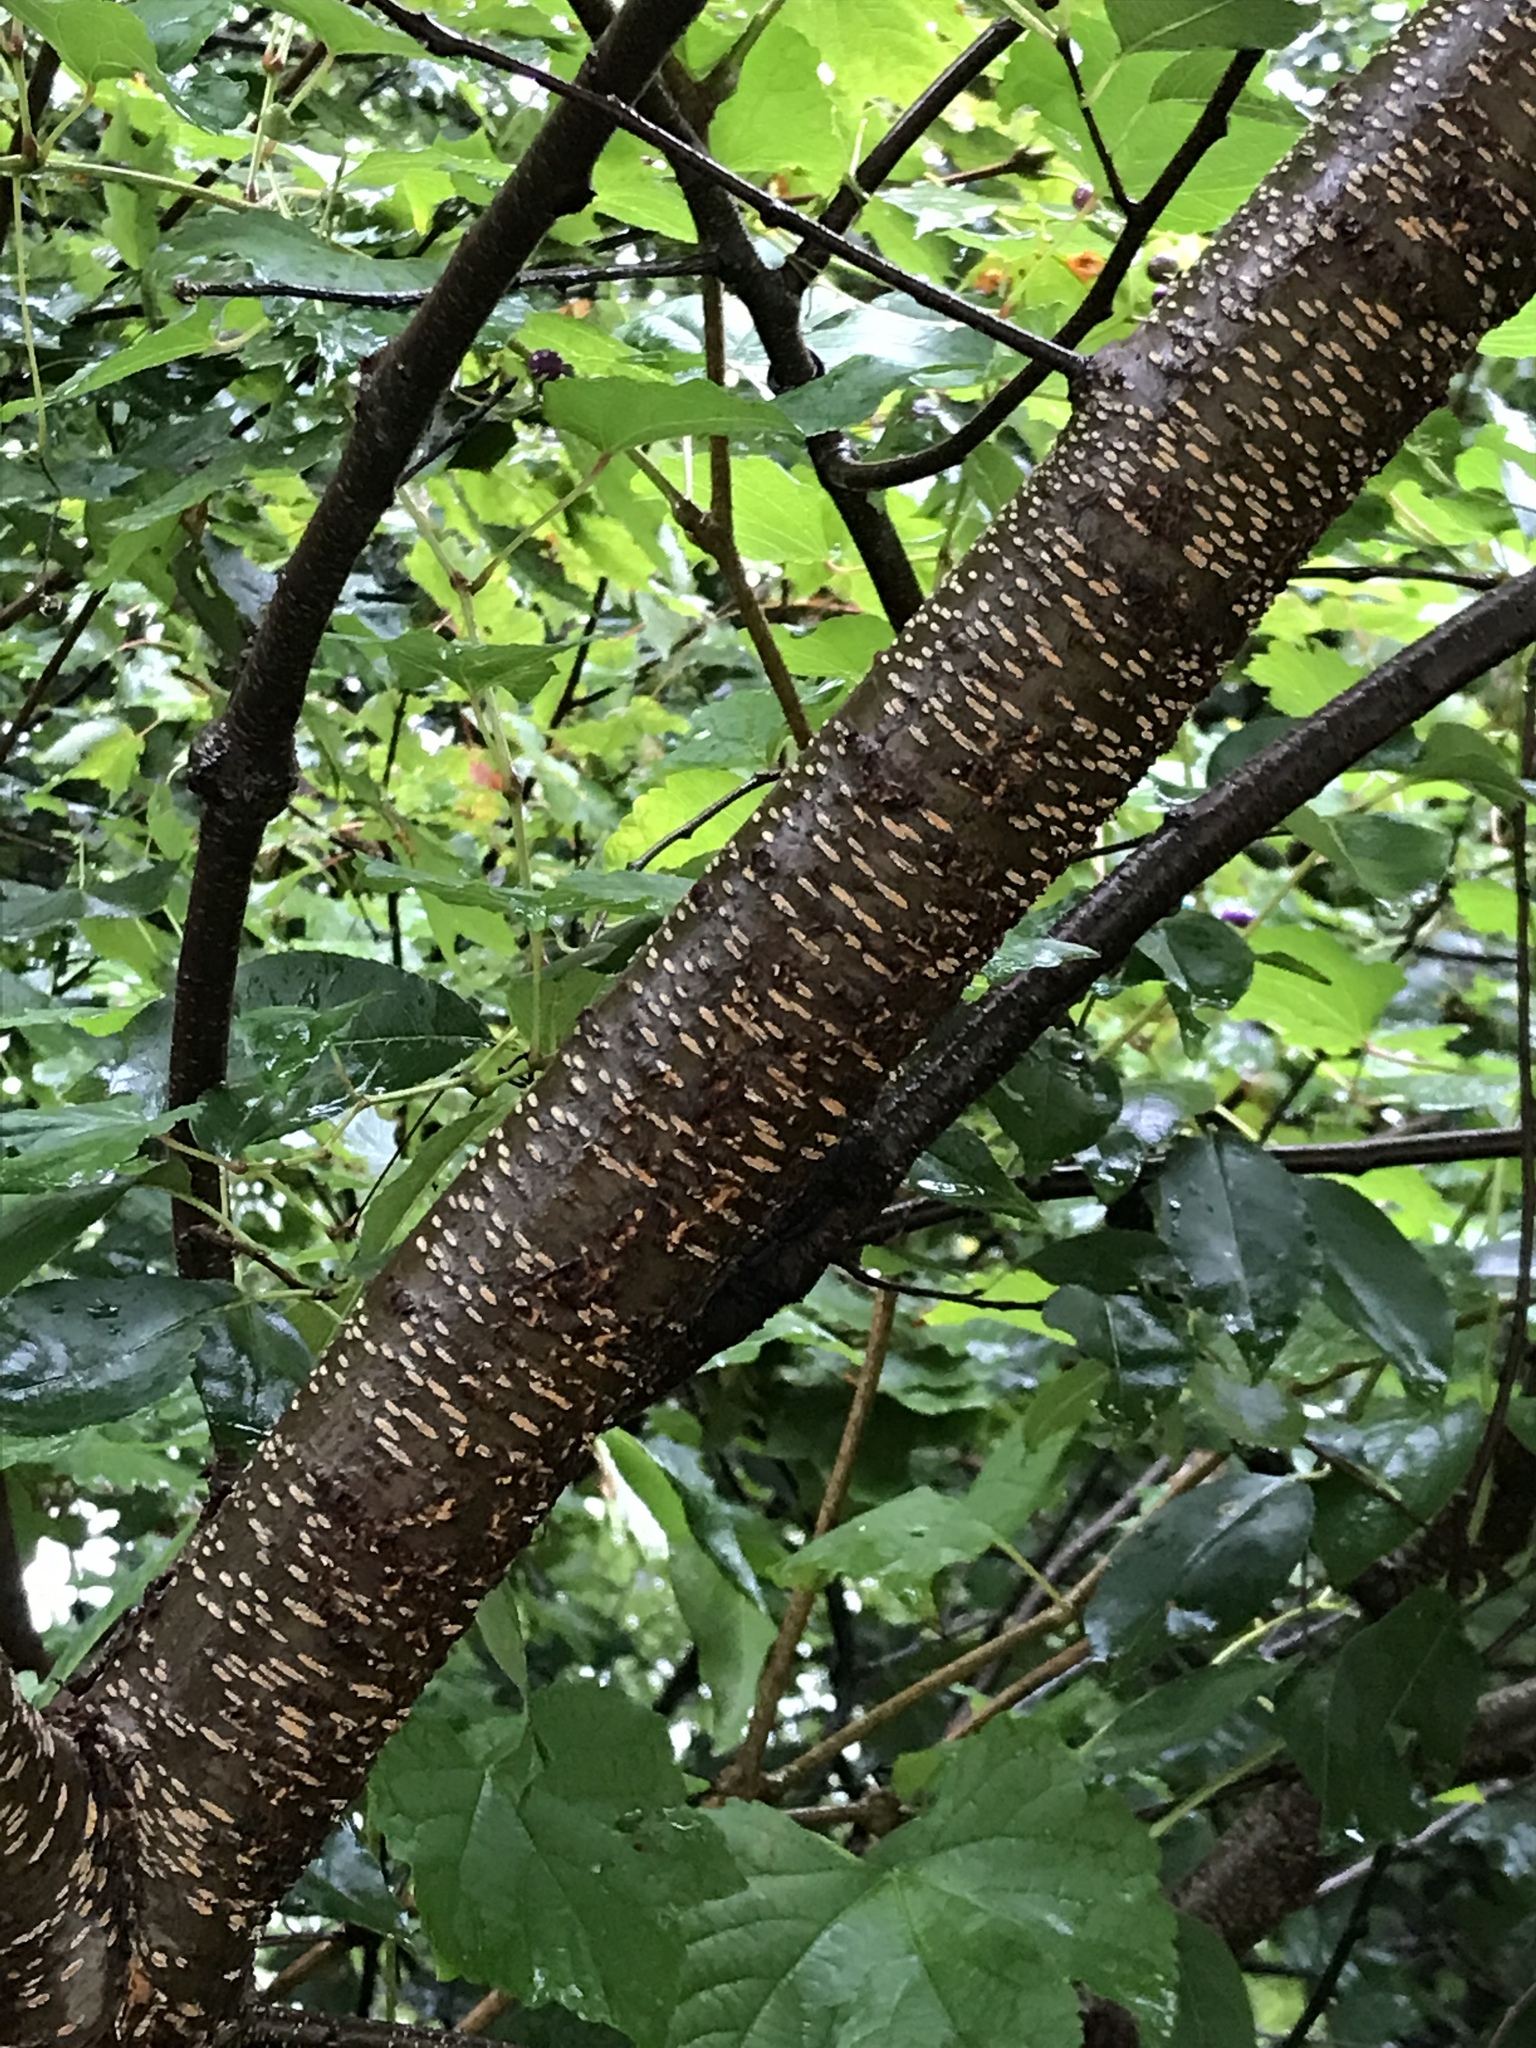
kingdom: Plantae
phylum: Tracheophyta
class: Magnoliopsida
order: Rosales
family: Rosaceae
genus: Prunus
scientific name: Prunus serotina
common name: Black cherry
